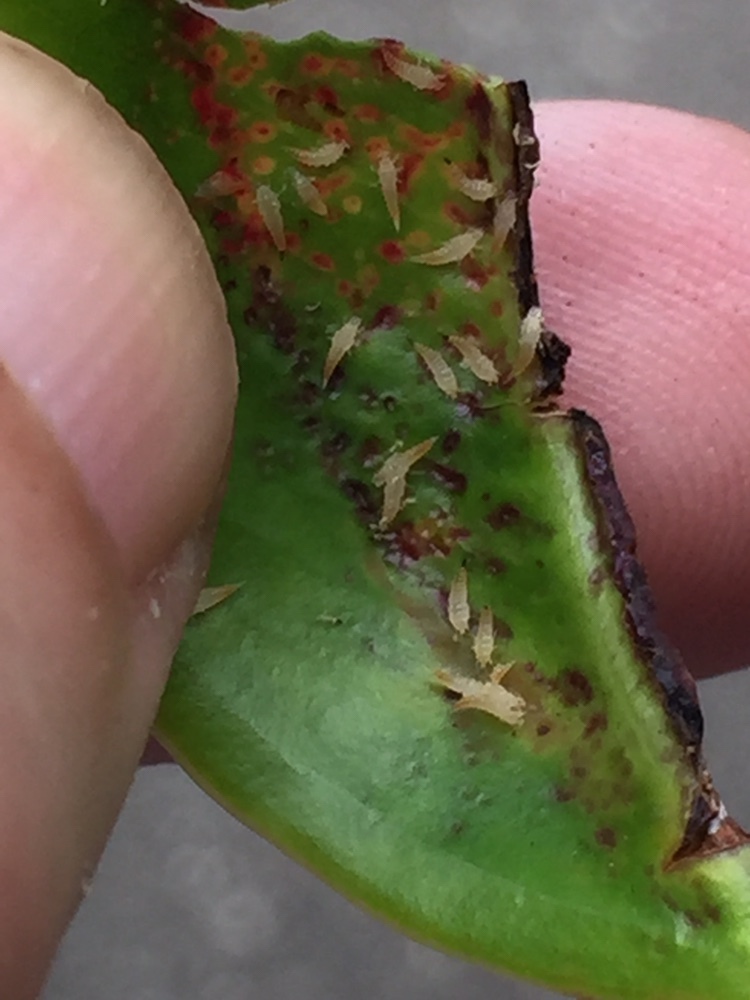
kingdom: Animalia
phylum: Arthropoda
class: Insecta
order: Thysanoptera
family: Phlaeothripidae
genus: Gynaikothrips
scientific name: Gynaikothrips ficorum
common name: Cuban laurel thrips
